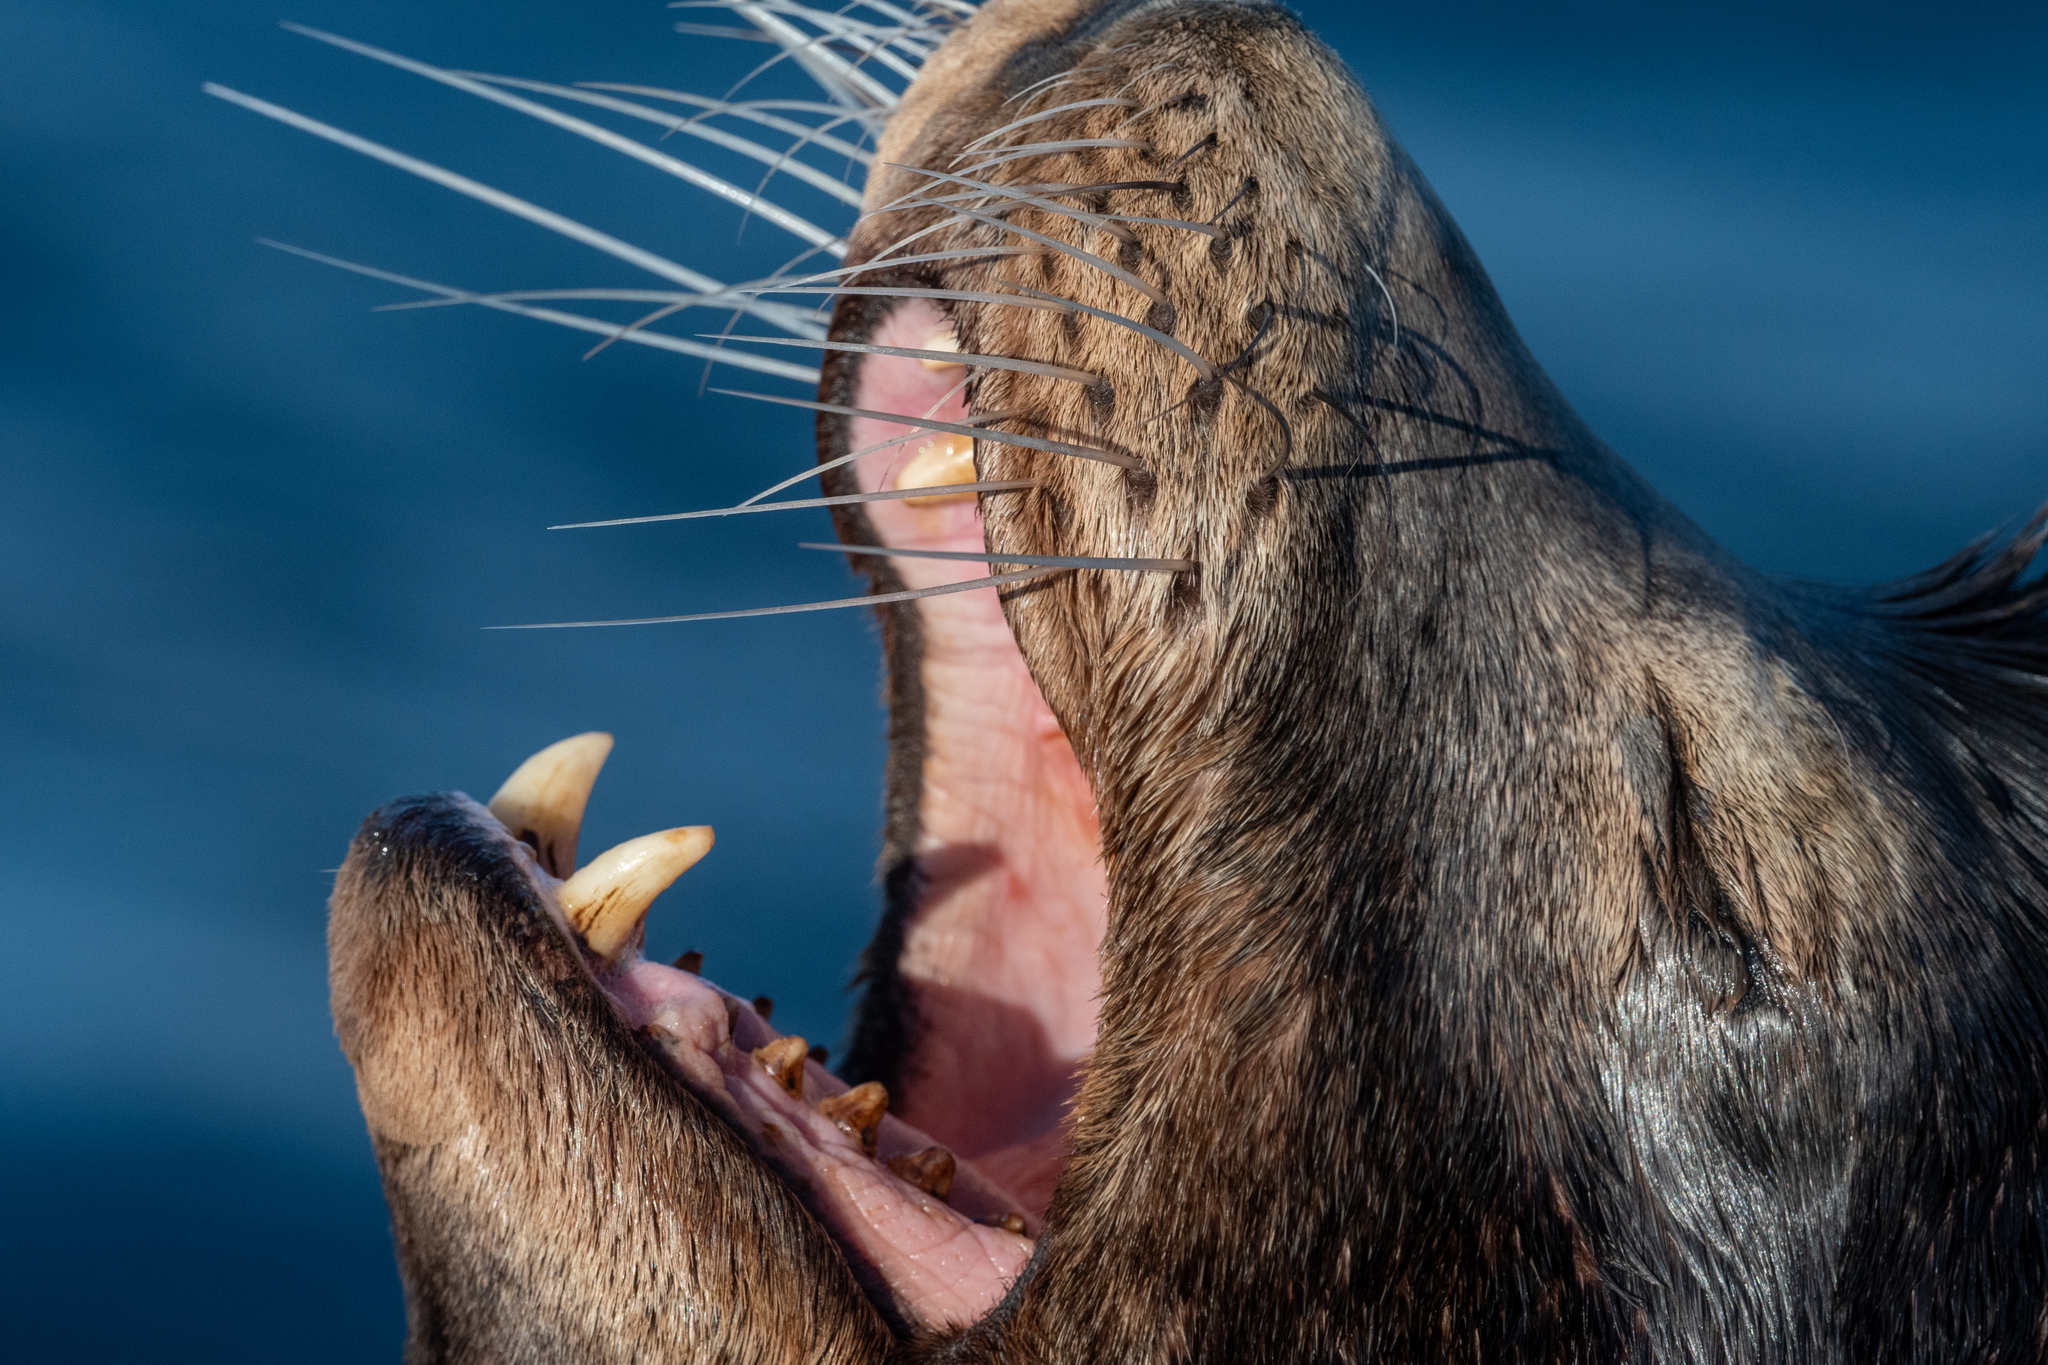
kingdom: Animalia
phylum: Chordata
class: Mammalia
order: Carnivora
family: Otariidae
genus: Zalophus
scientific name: Zalophus californianus
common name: California sea lion
